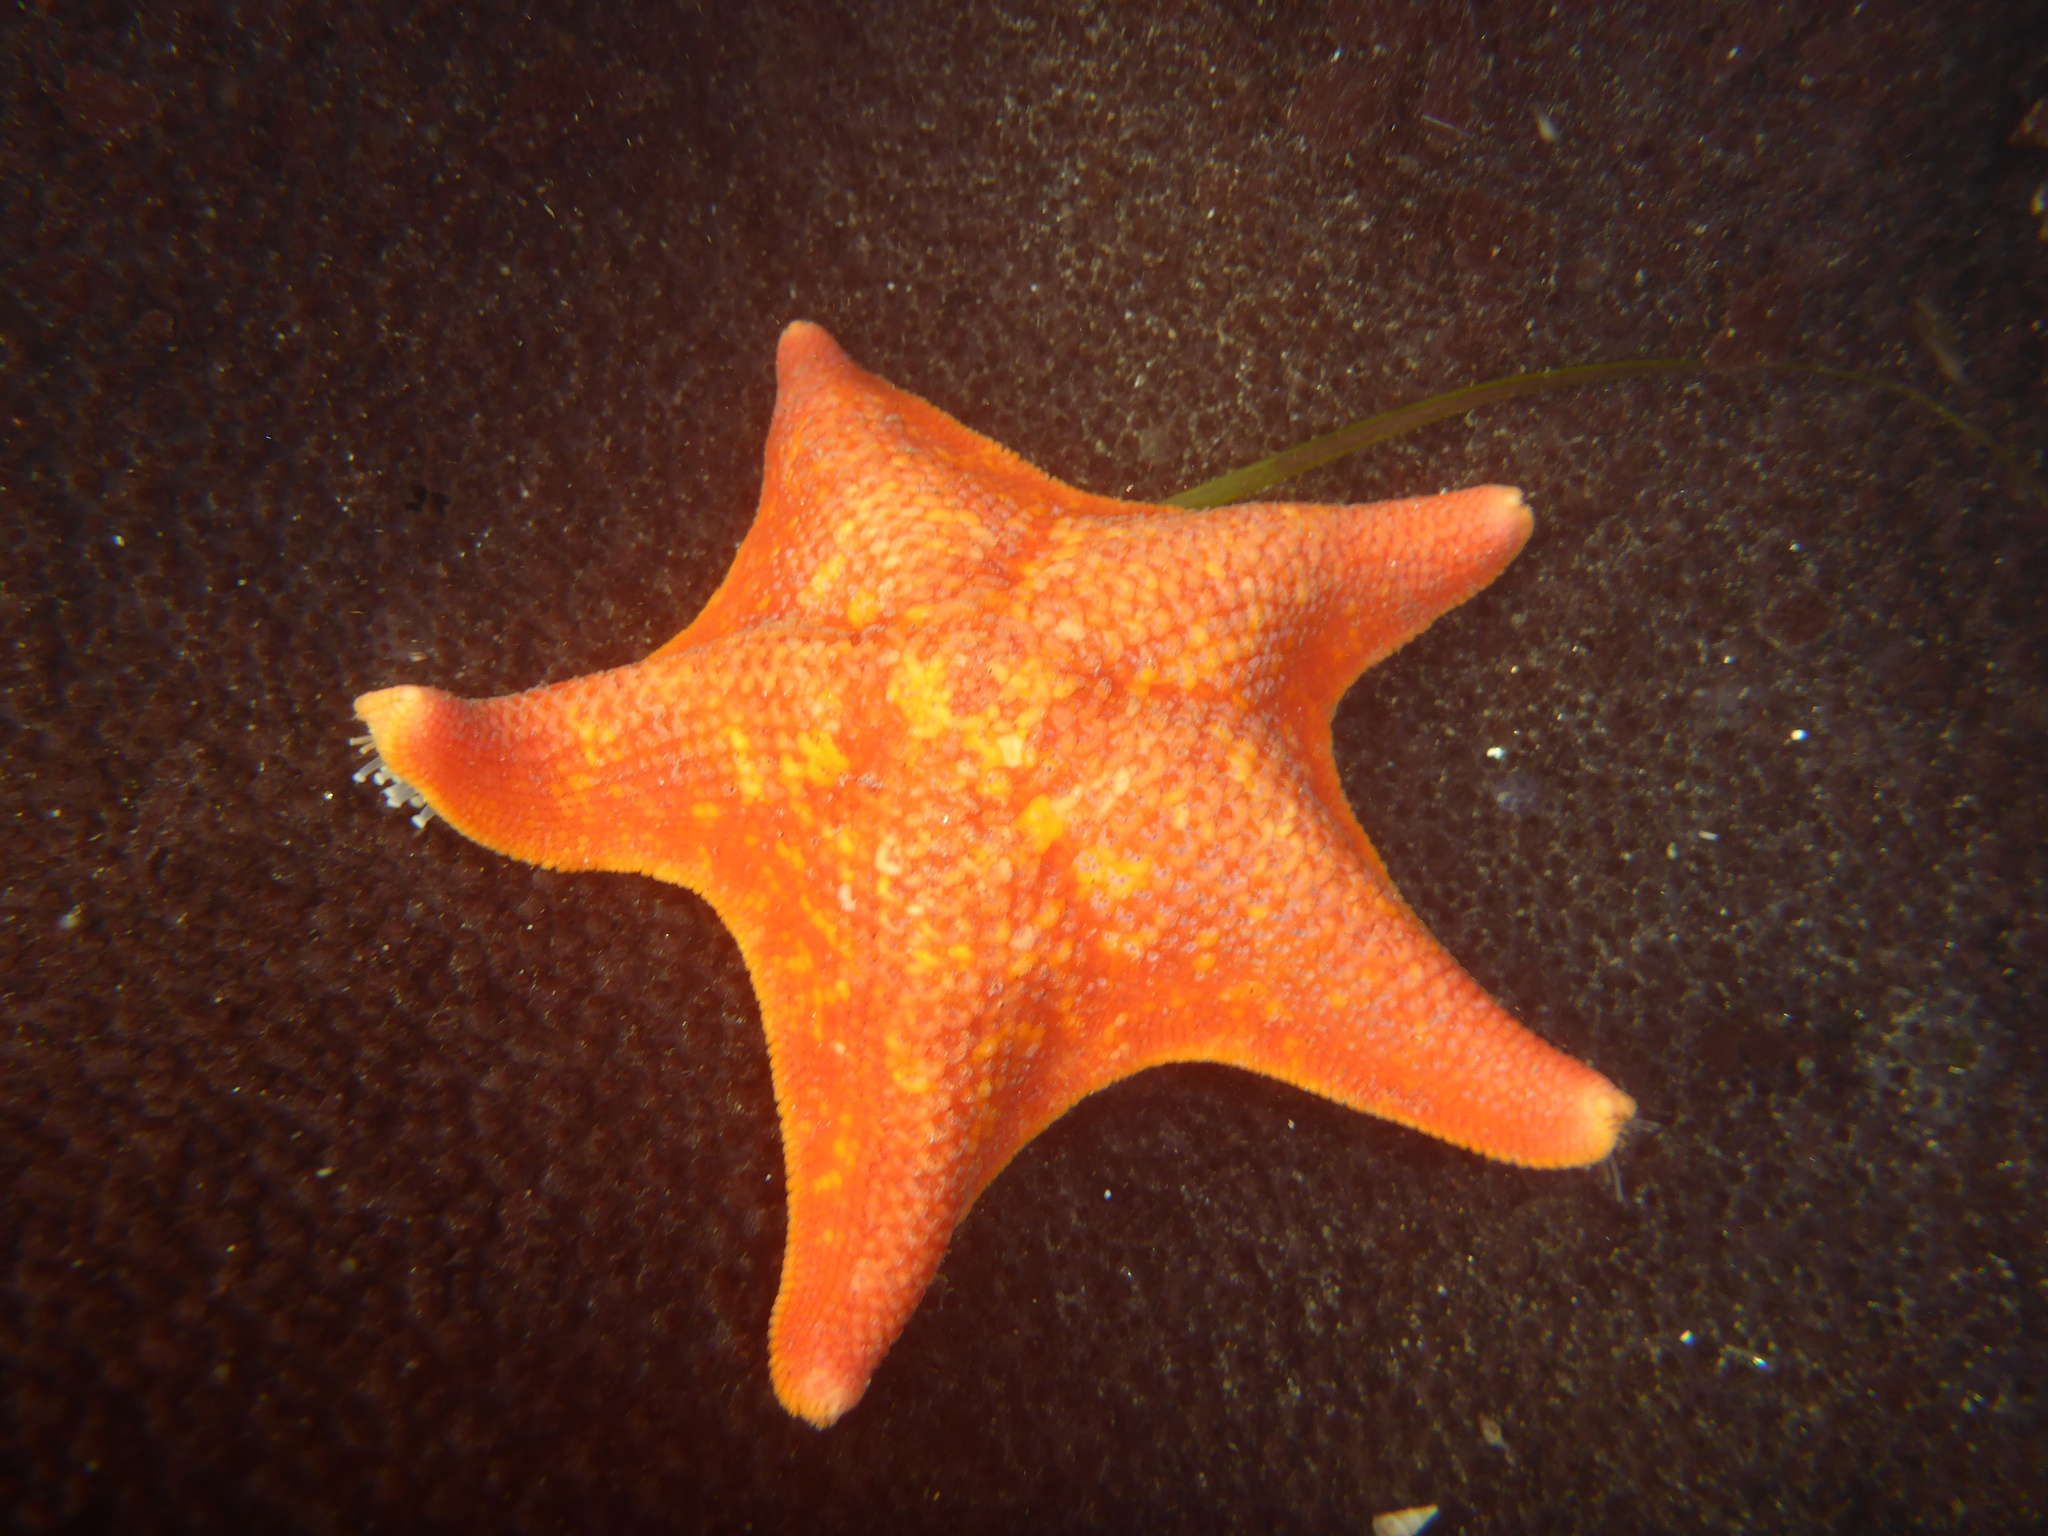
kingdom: Animalia
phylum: Echinodermata
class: Asteroidea
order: Valvatida
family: Asterinidae
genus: Patiria
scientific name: Patiria miniata
